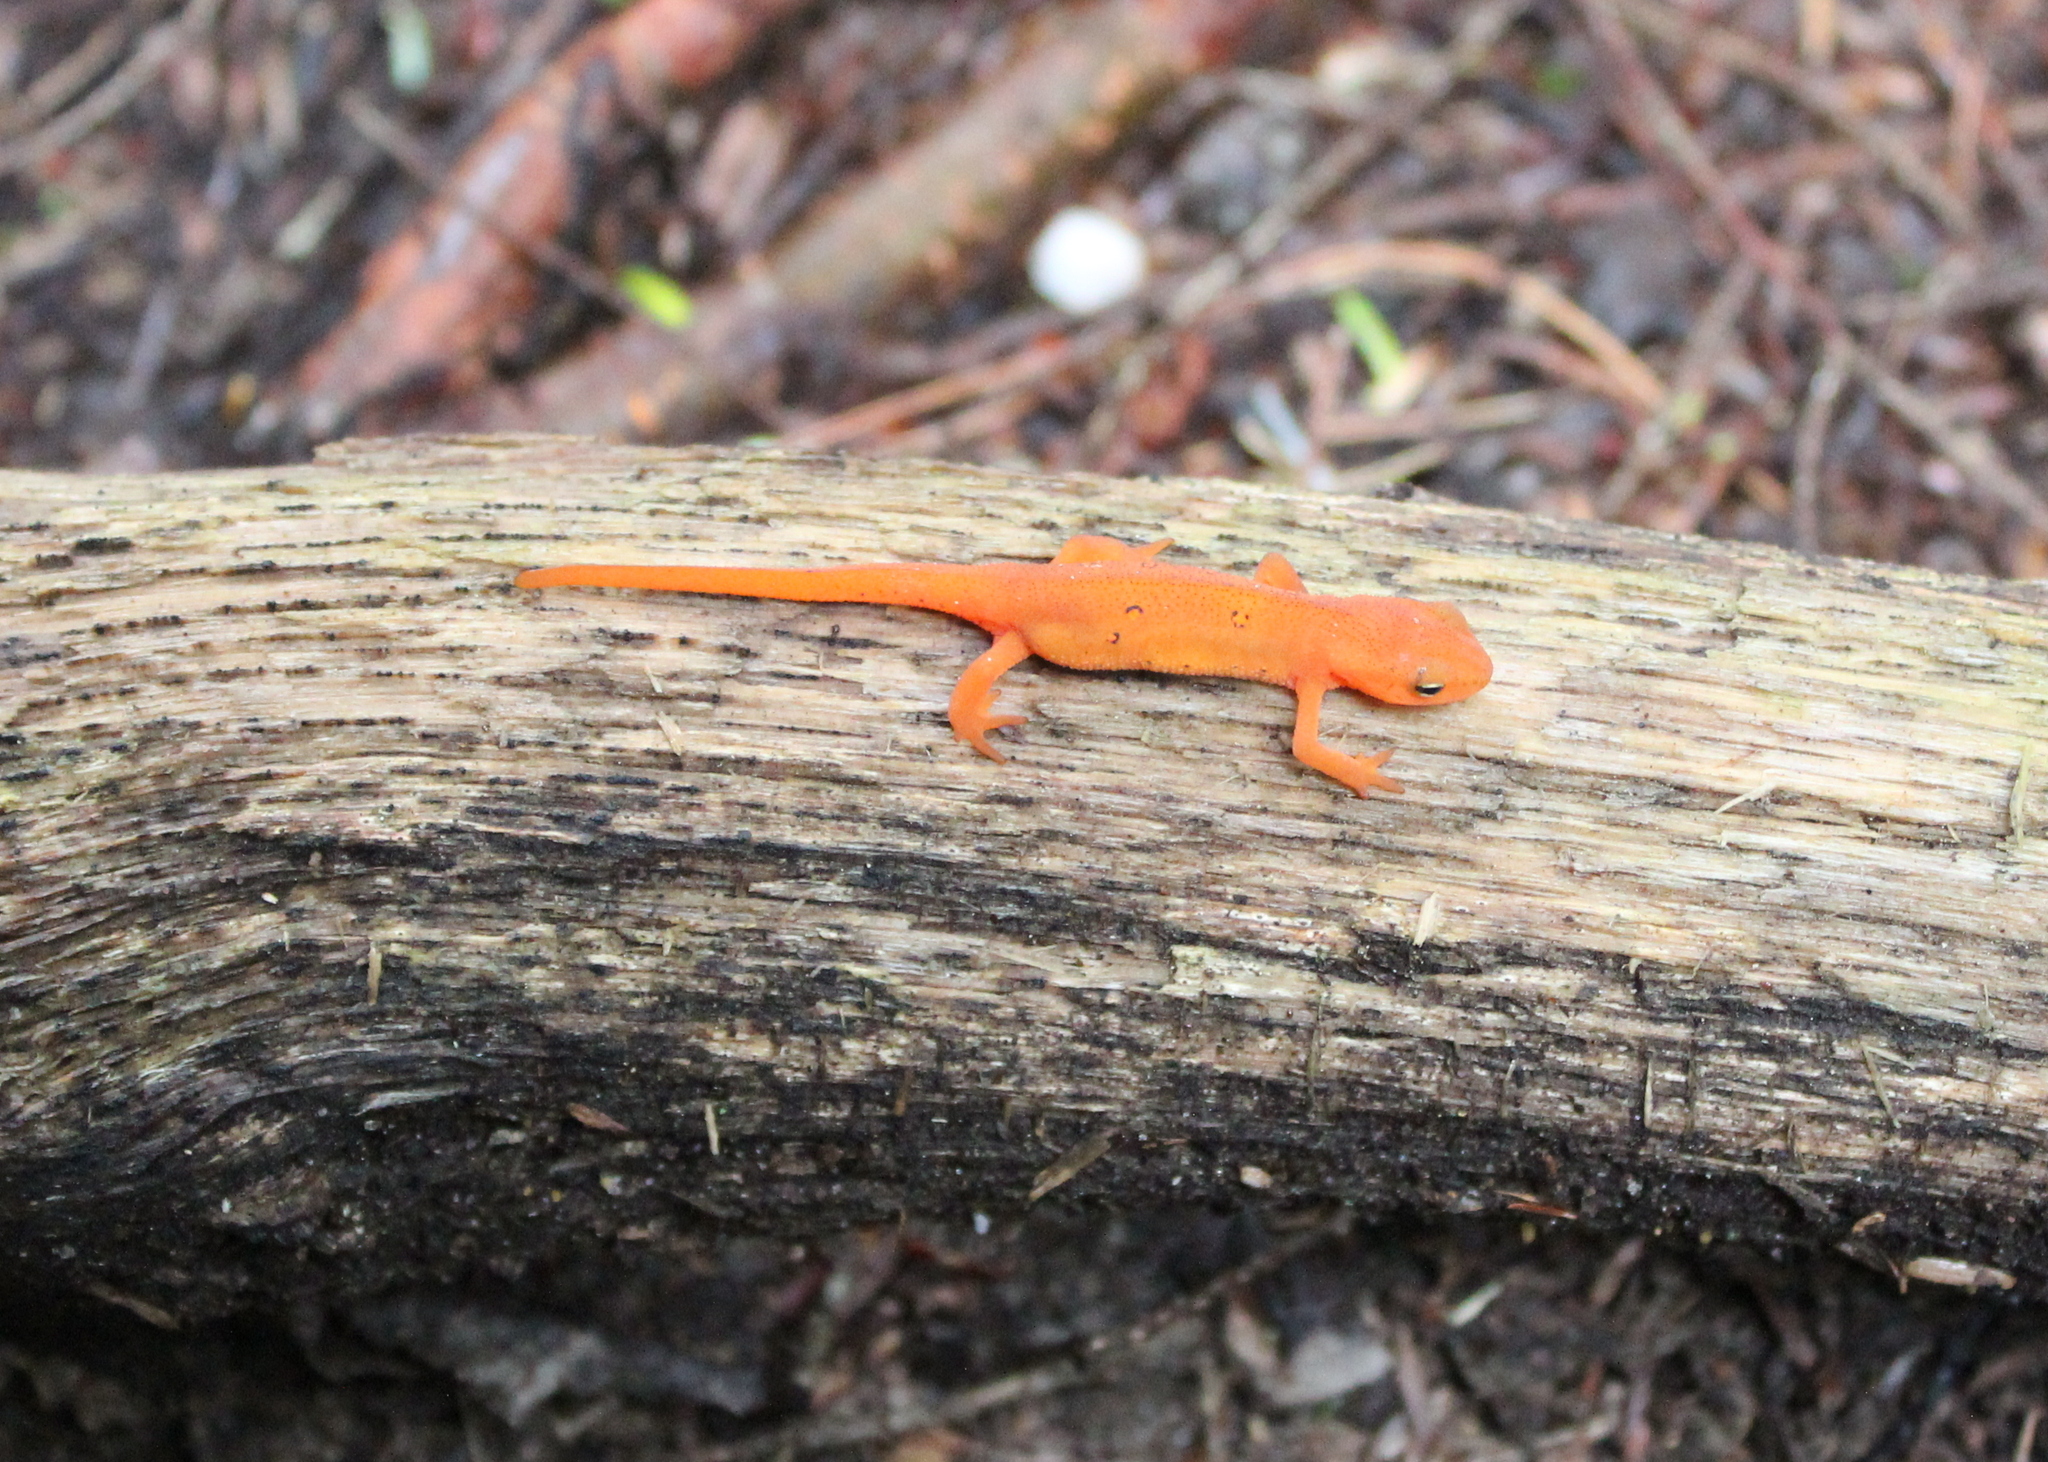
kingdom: Animalia
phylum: Chordata
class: Amphibia
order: Caudata
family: Salamandridae
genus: Notophthalmus
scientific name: Notophthalmus viridescens
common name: Eastern newt
